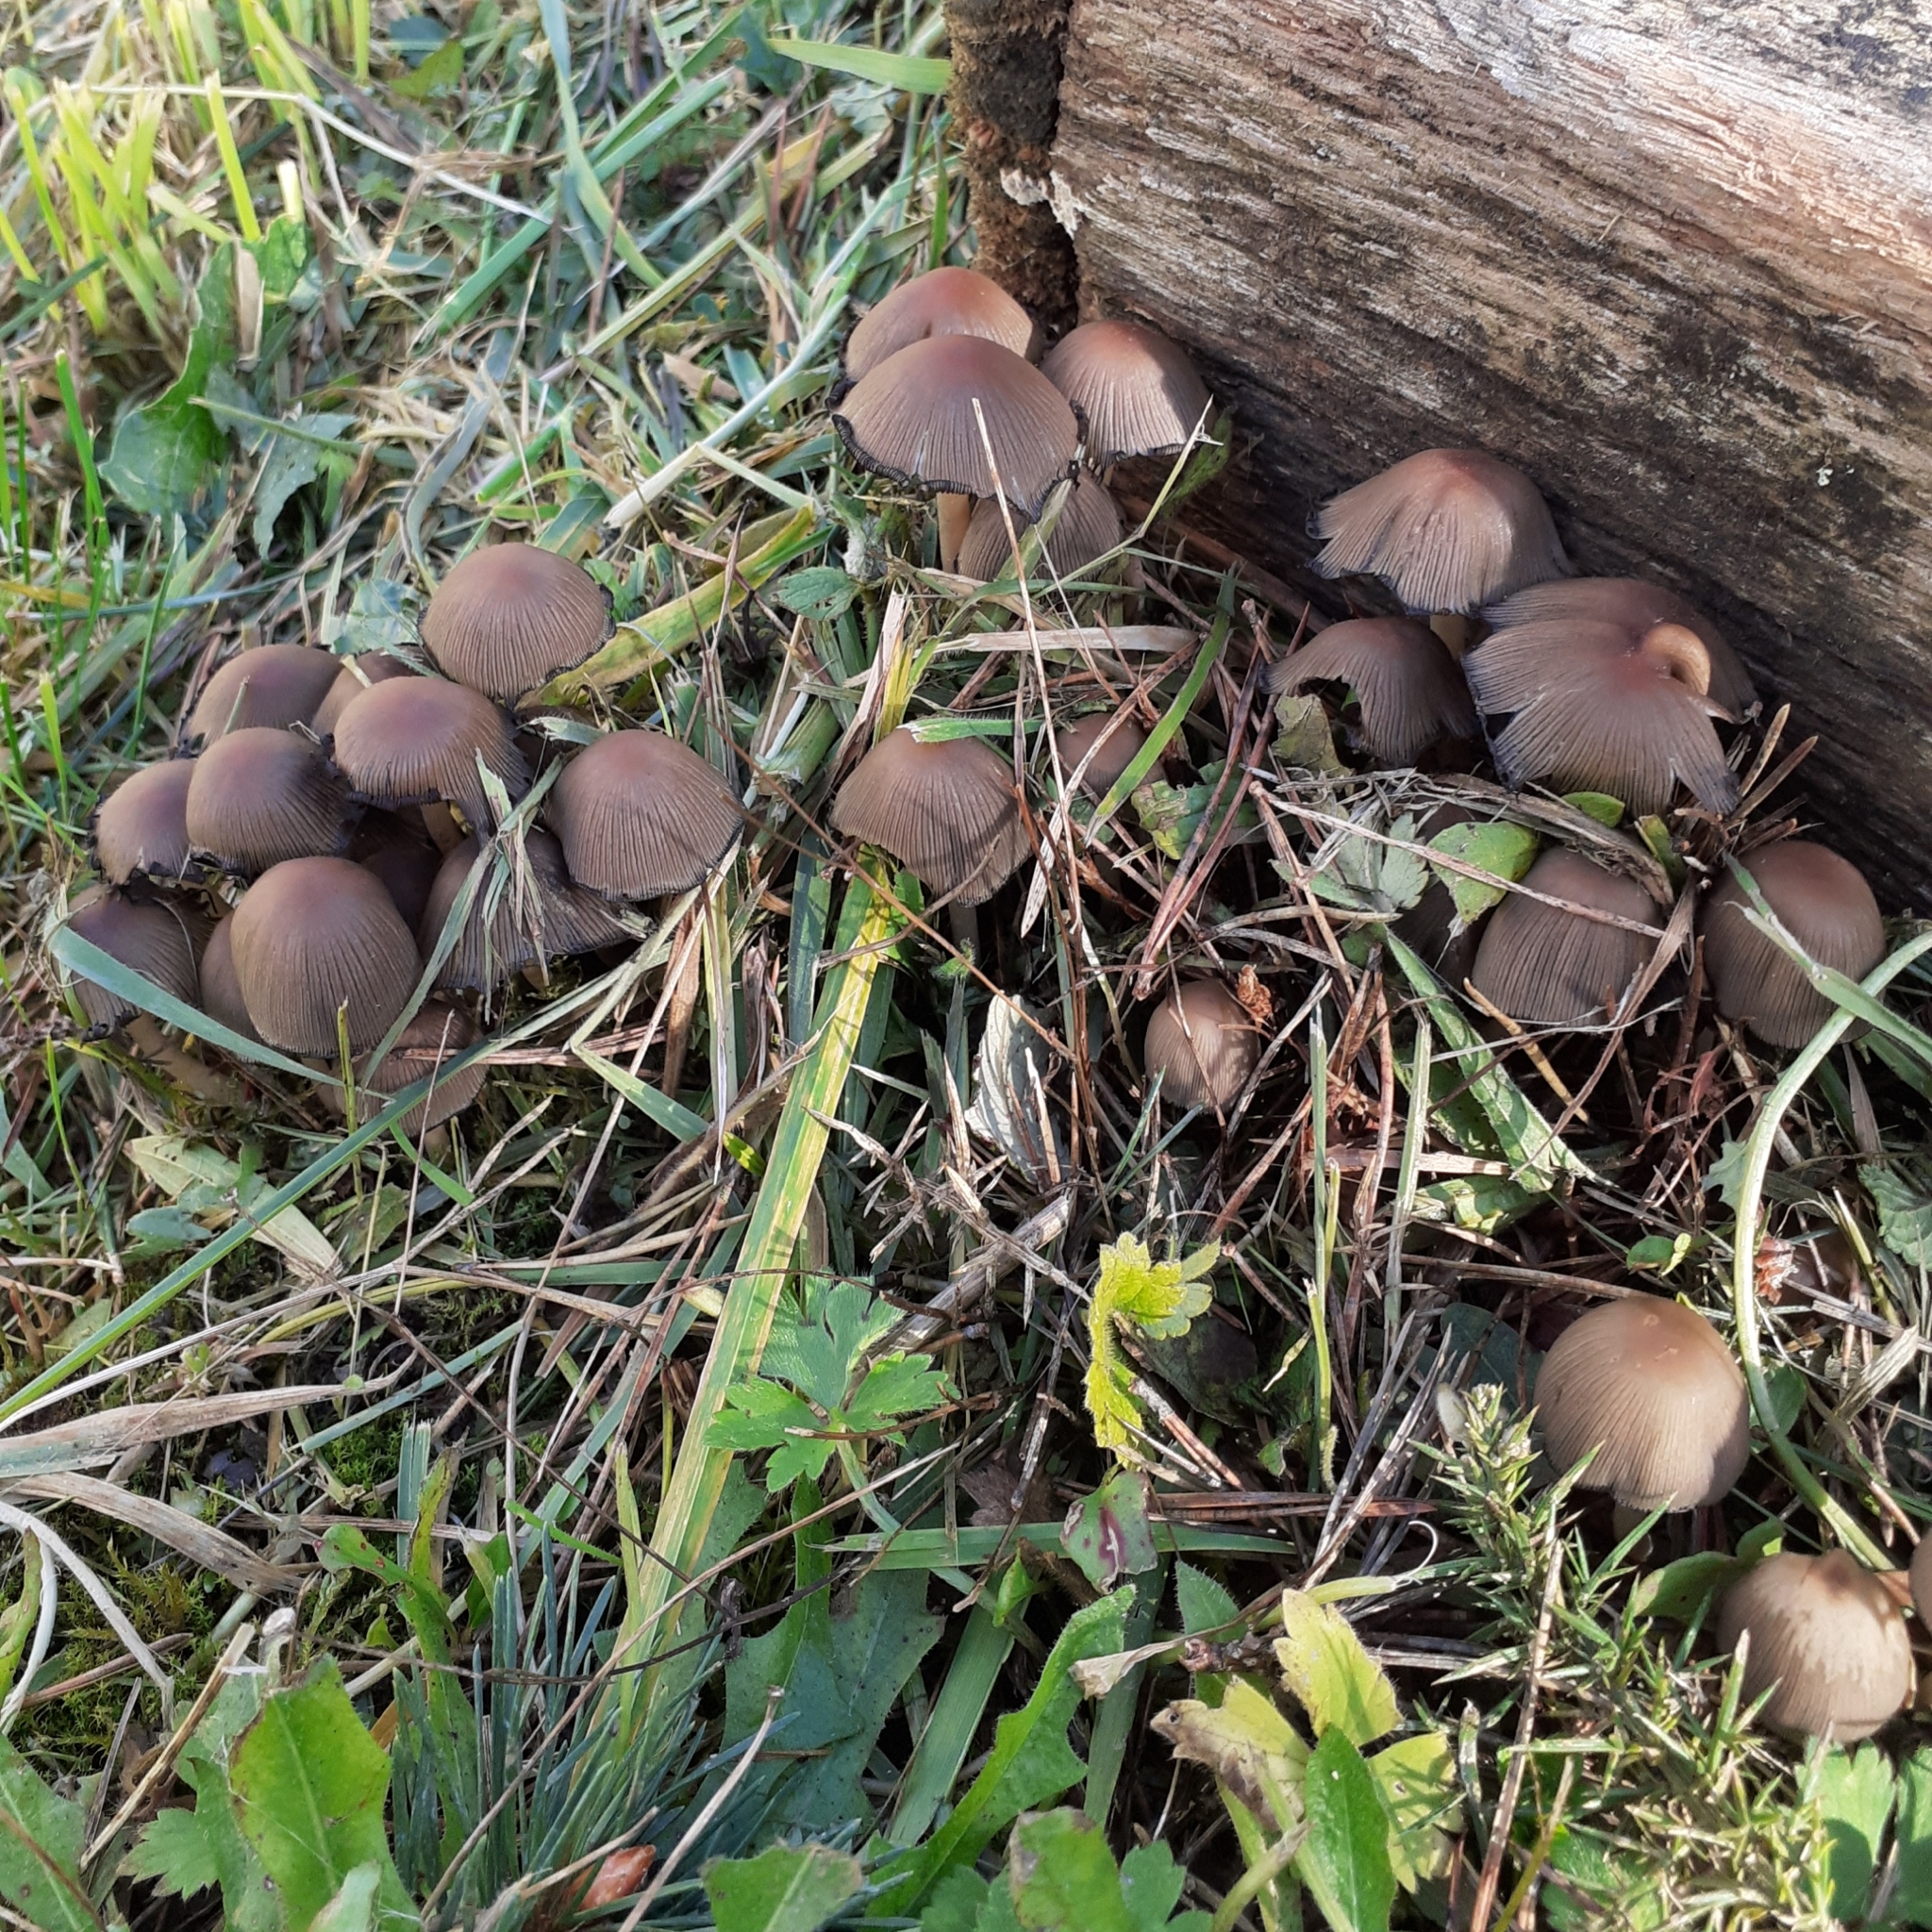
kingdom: Fungi
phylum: Basidiomycota
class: Agaricomycetes
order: Agaricales
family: Psathyrellaceae
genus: Coprinellus
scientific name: Coprinellus micaceus
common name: Glistening ink-cap
